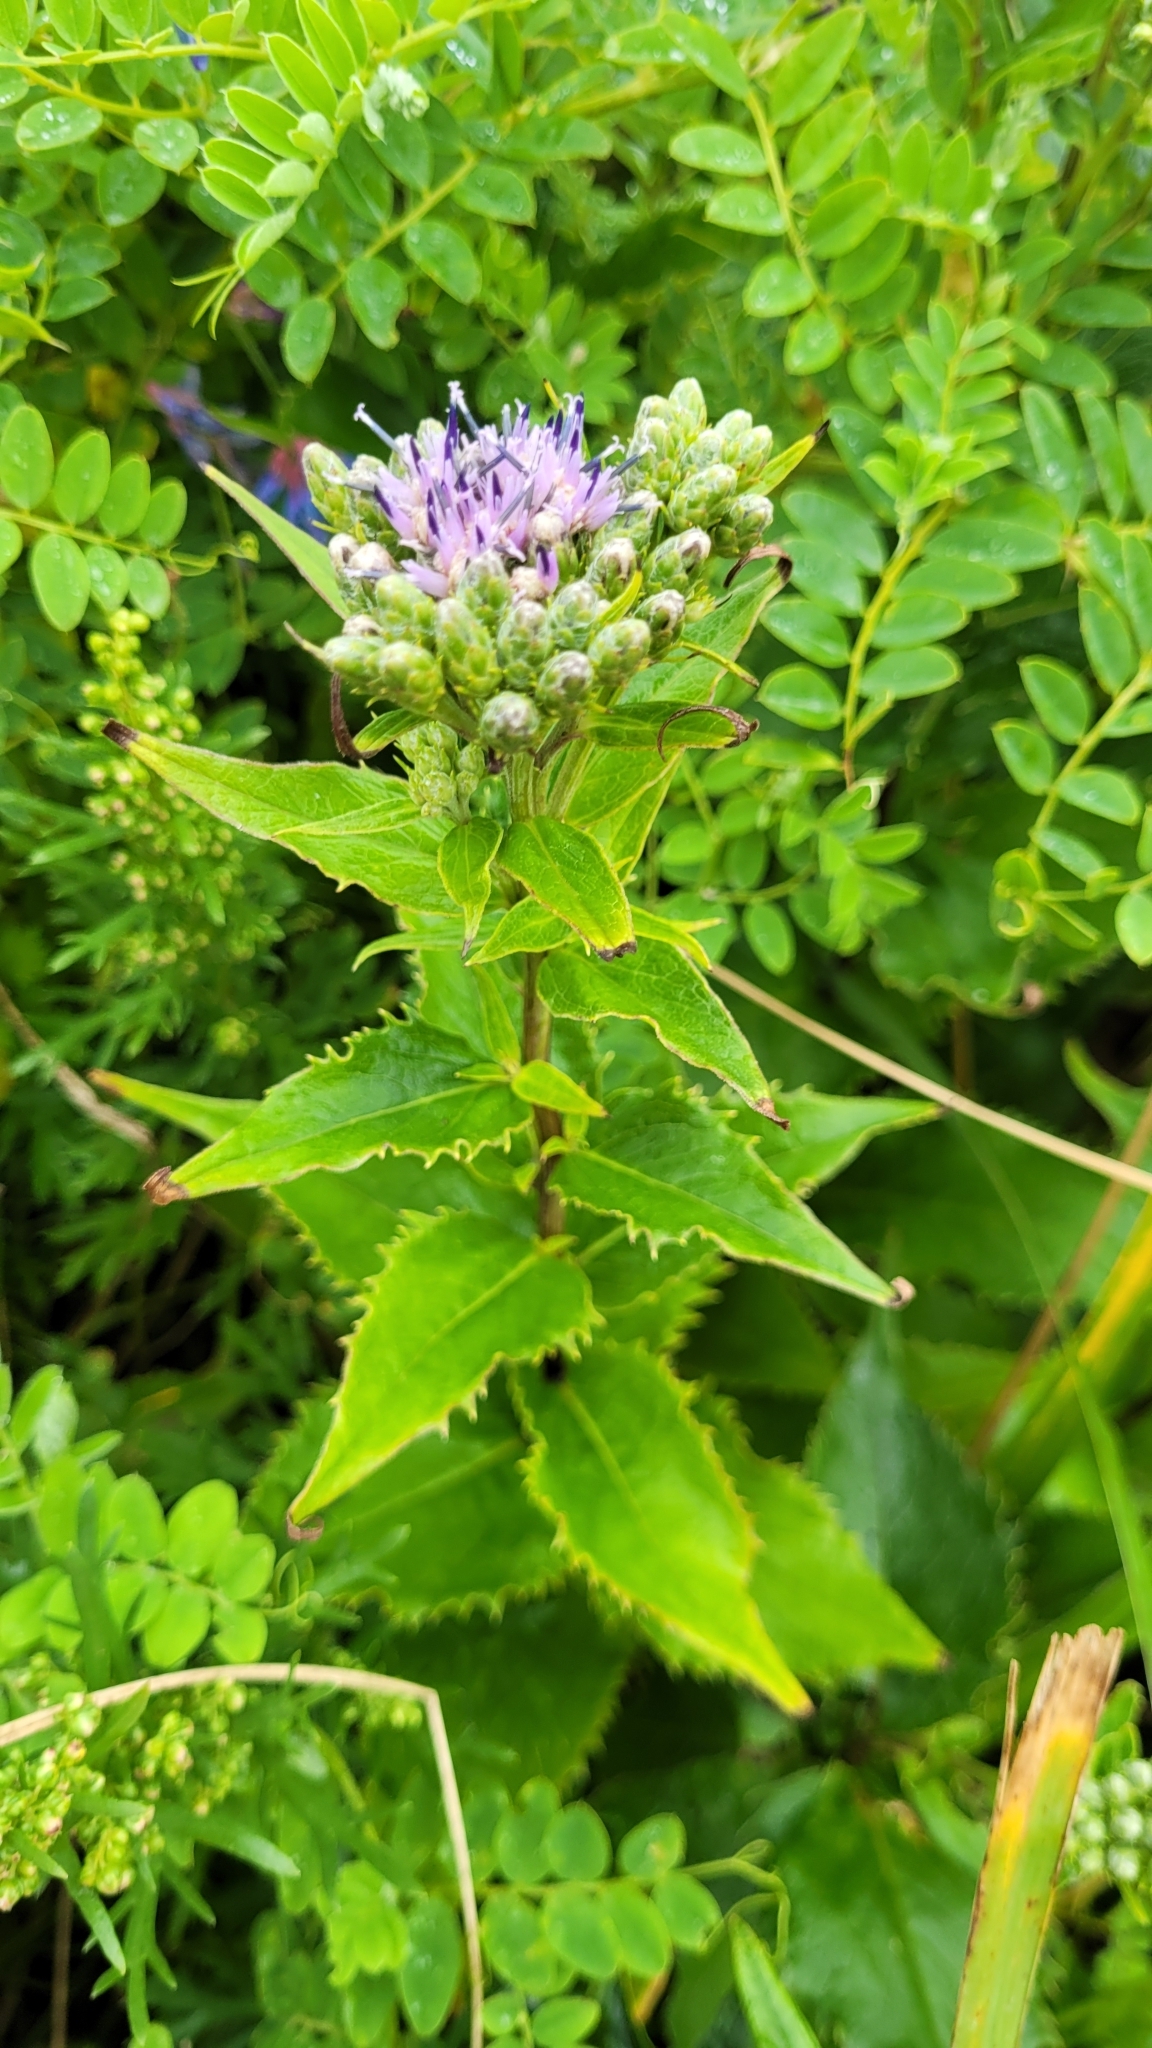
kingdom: Plantae
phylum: Tracheophyta
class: Magnoliopsida
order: Asterales
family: Asteraceae
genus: Saussurea
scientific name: Saussurea riederi
